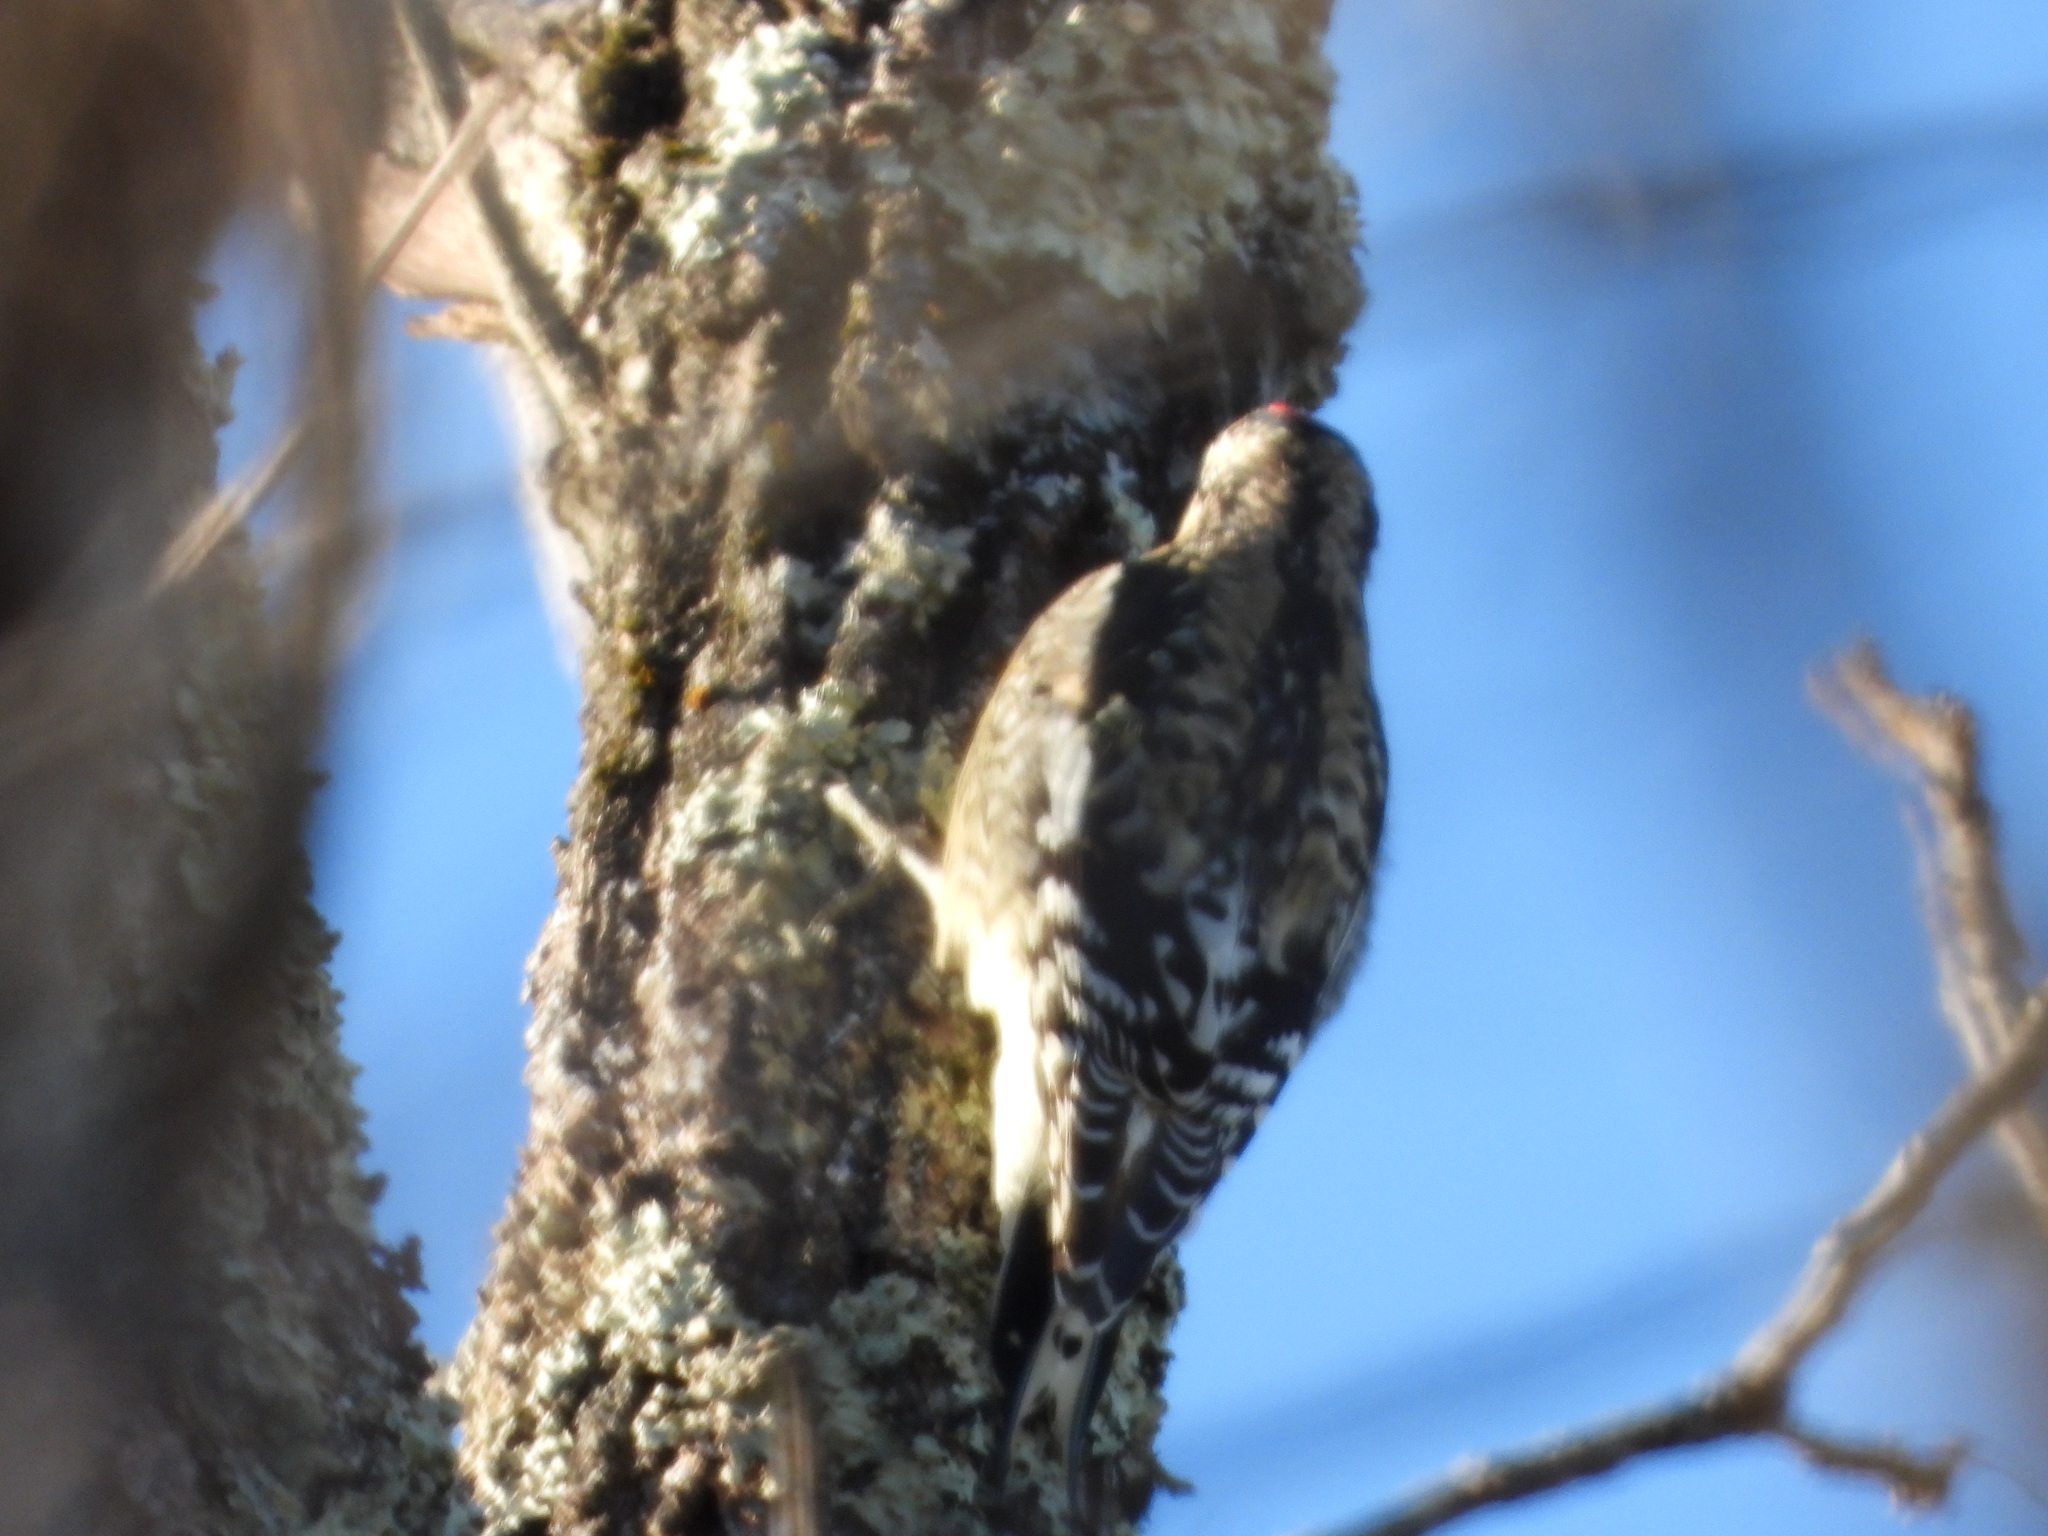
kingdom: Animalia
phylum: Chordata
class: Aves
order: Piciformes
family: Picidae
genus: Sphyrapicus
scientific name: Sphyrapicus varius
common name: Yellow-bellied sapsucker
